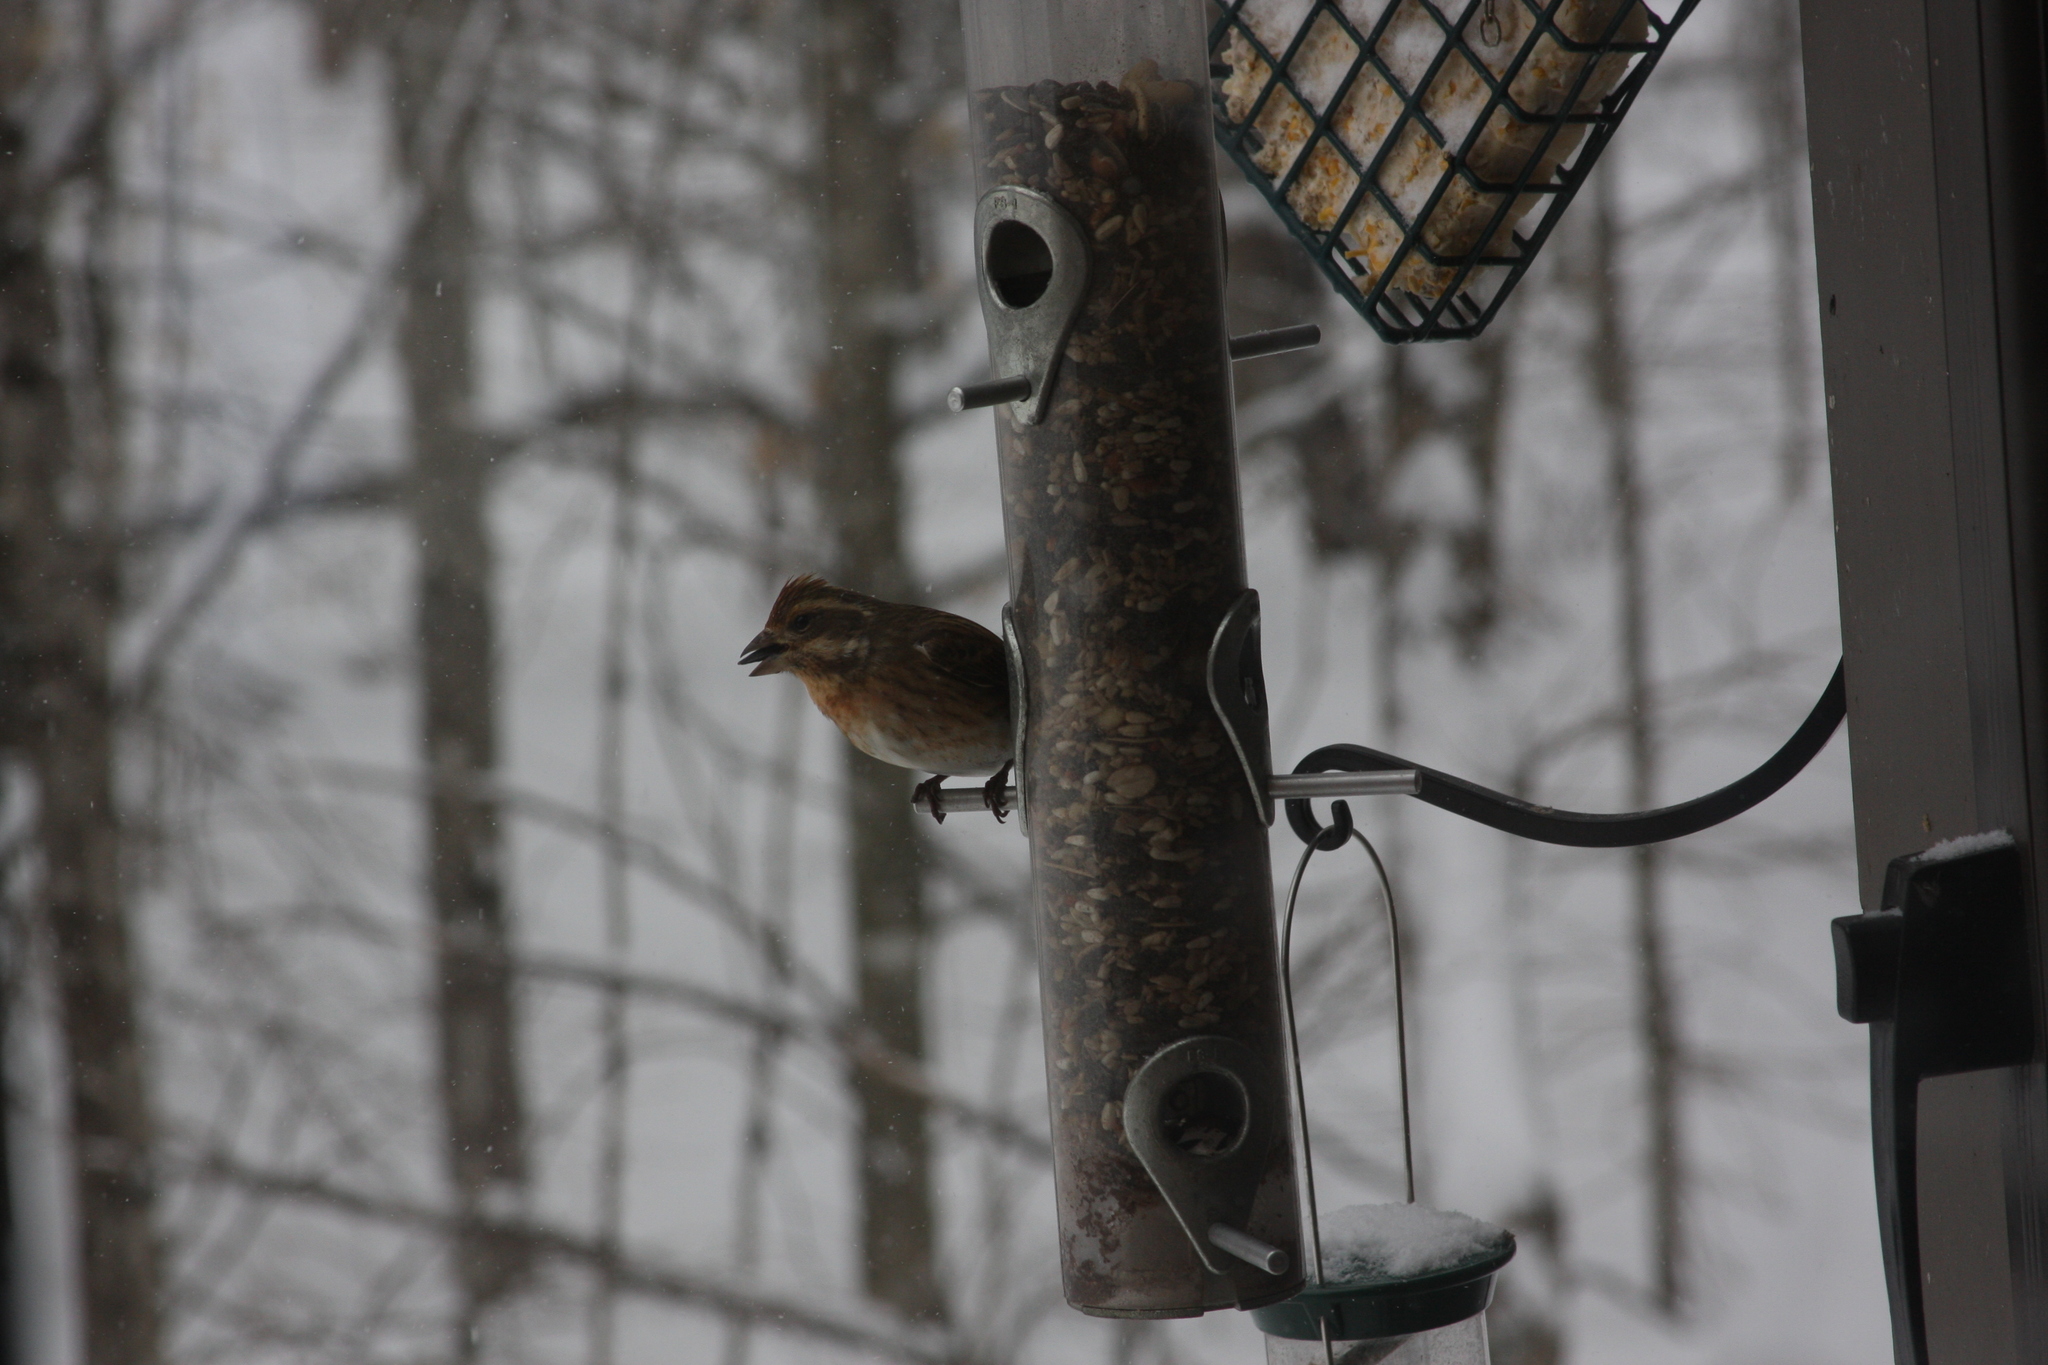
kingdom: Animalia
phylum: Chordata
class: Aves
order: Passeriformes
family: Fringillidae
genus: Haemorhous
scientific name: Haemorhous purpureus
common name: Purple finch
